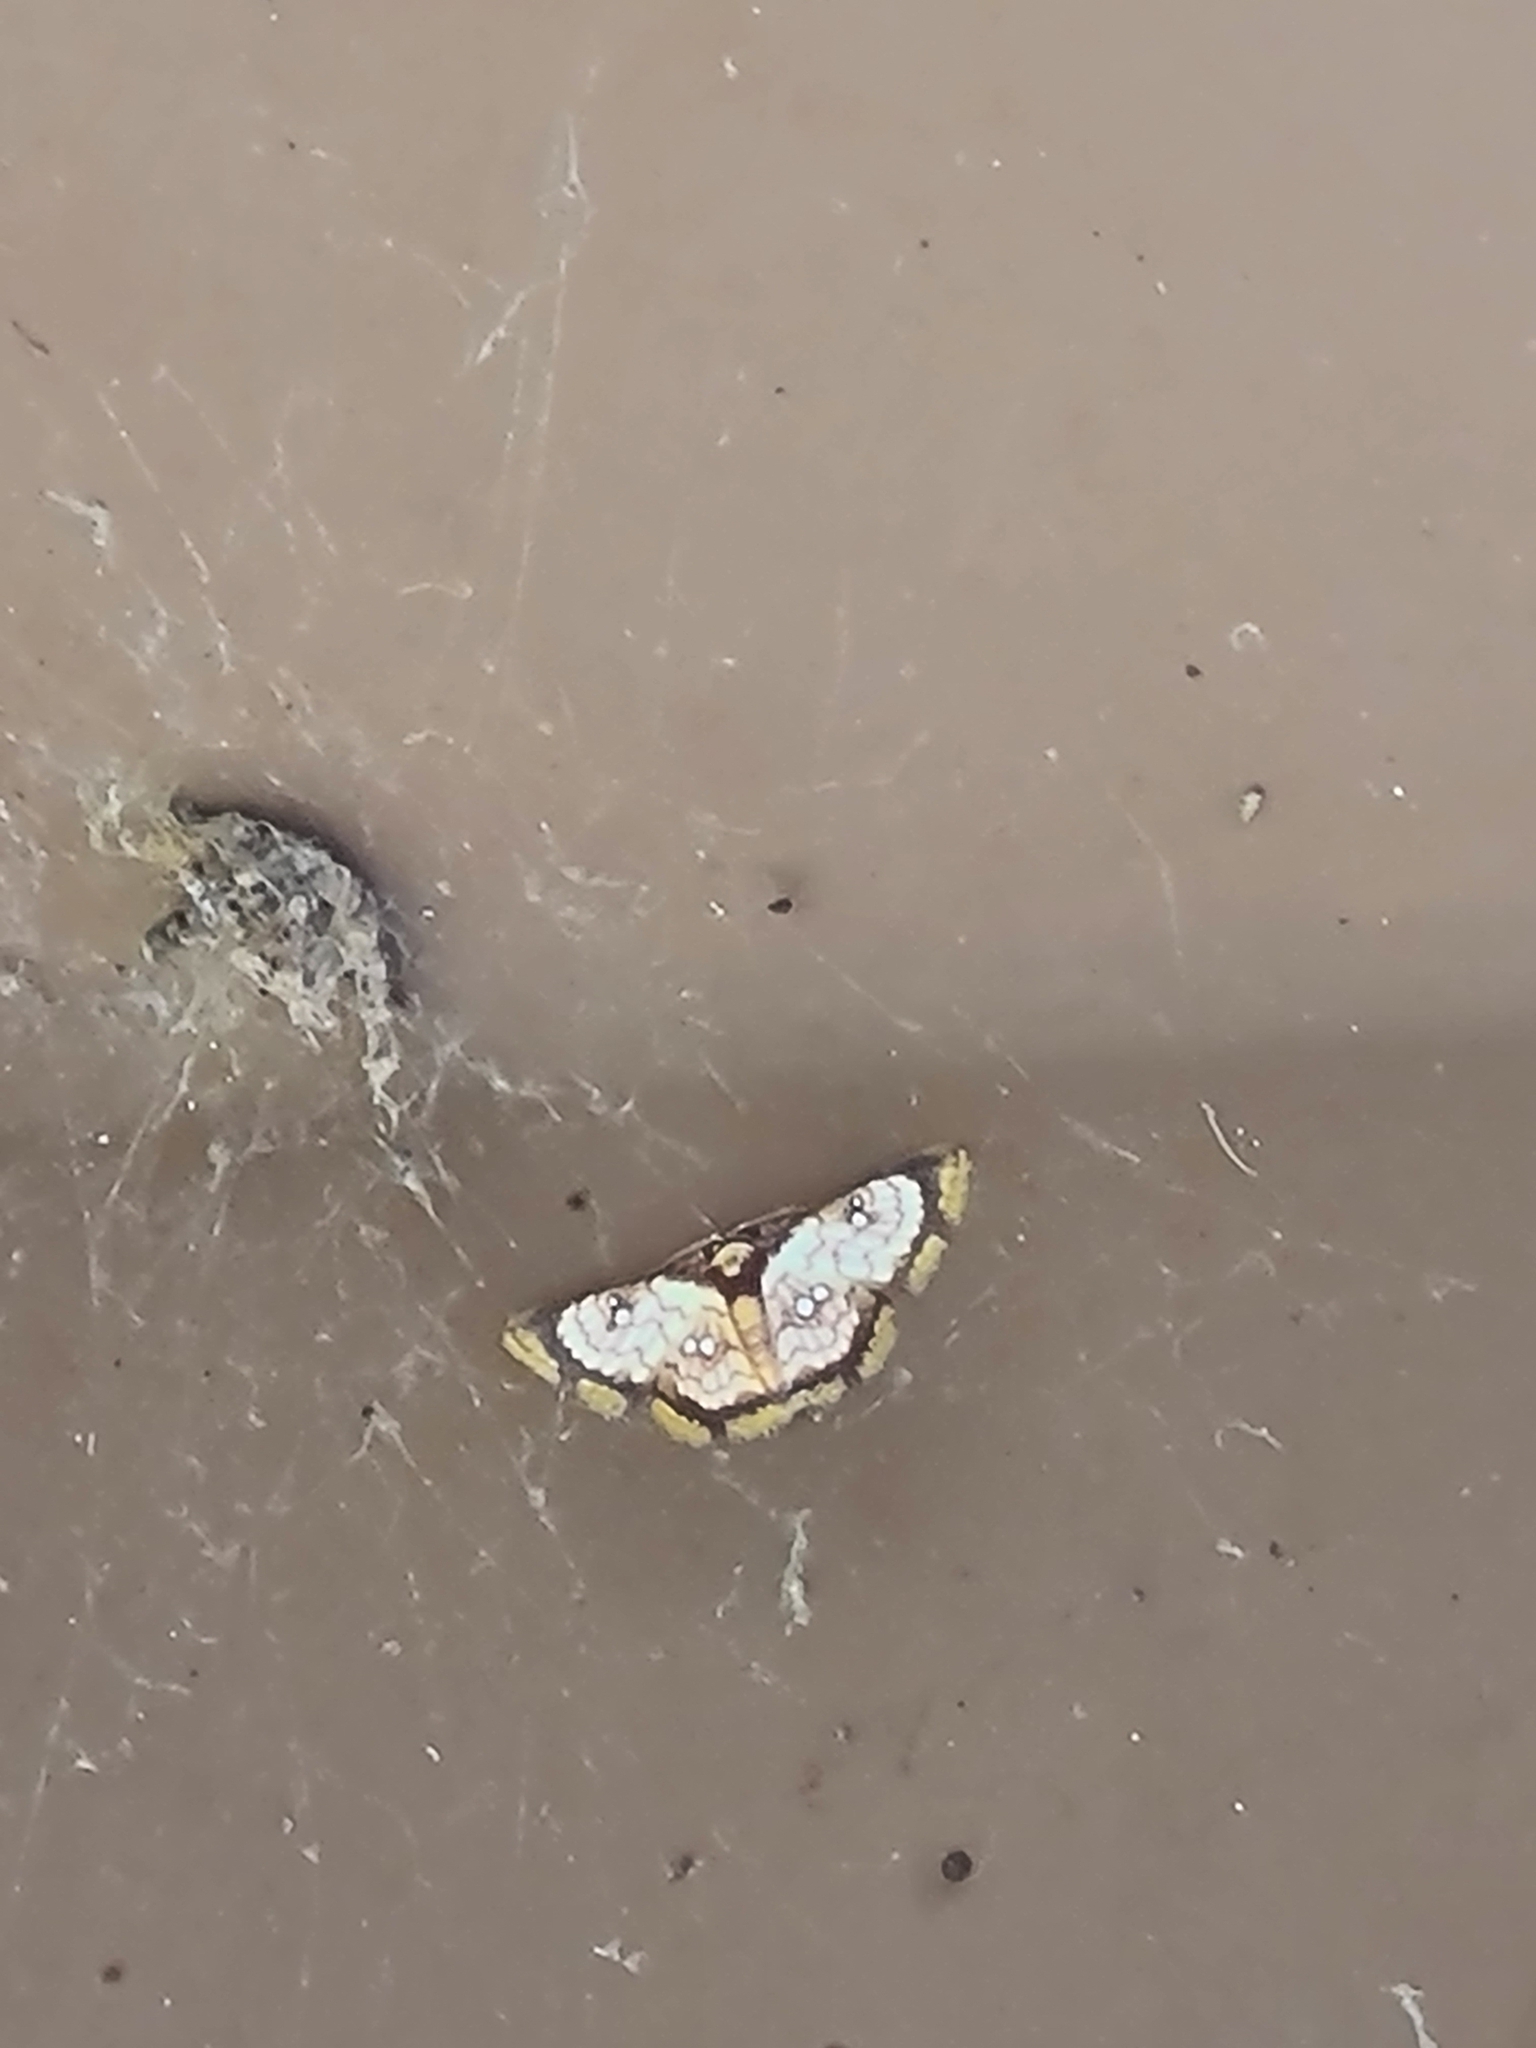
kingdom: Animalia
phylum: Arthropoda
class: Insecta
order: Lepidoptera
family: Geometridae
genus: Tricentra
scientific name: Tricentra brunneomarginata
